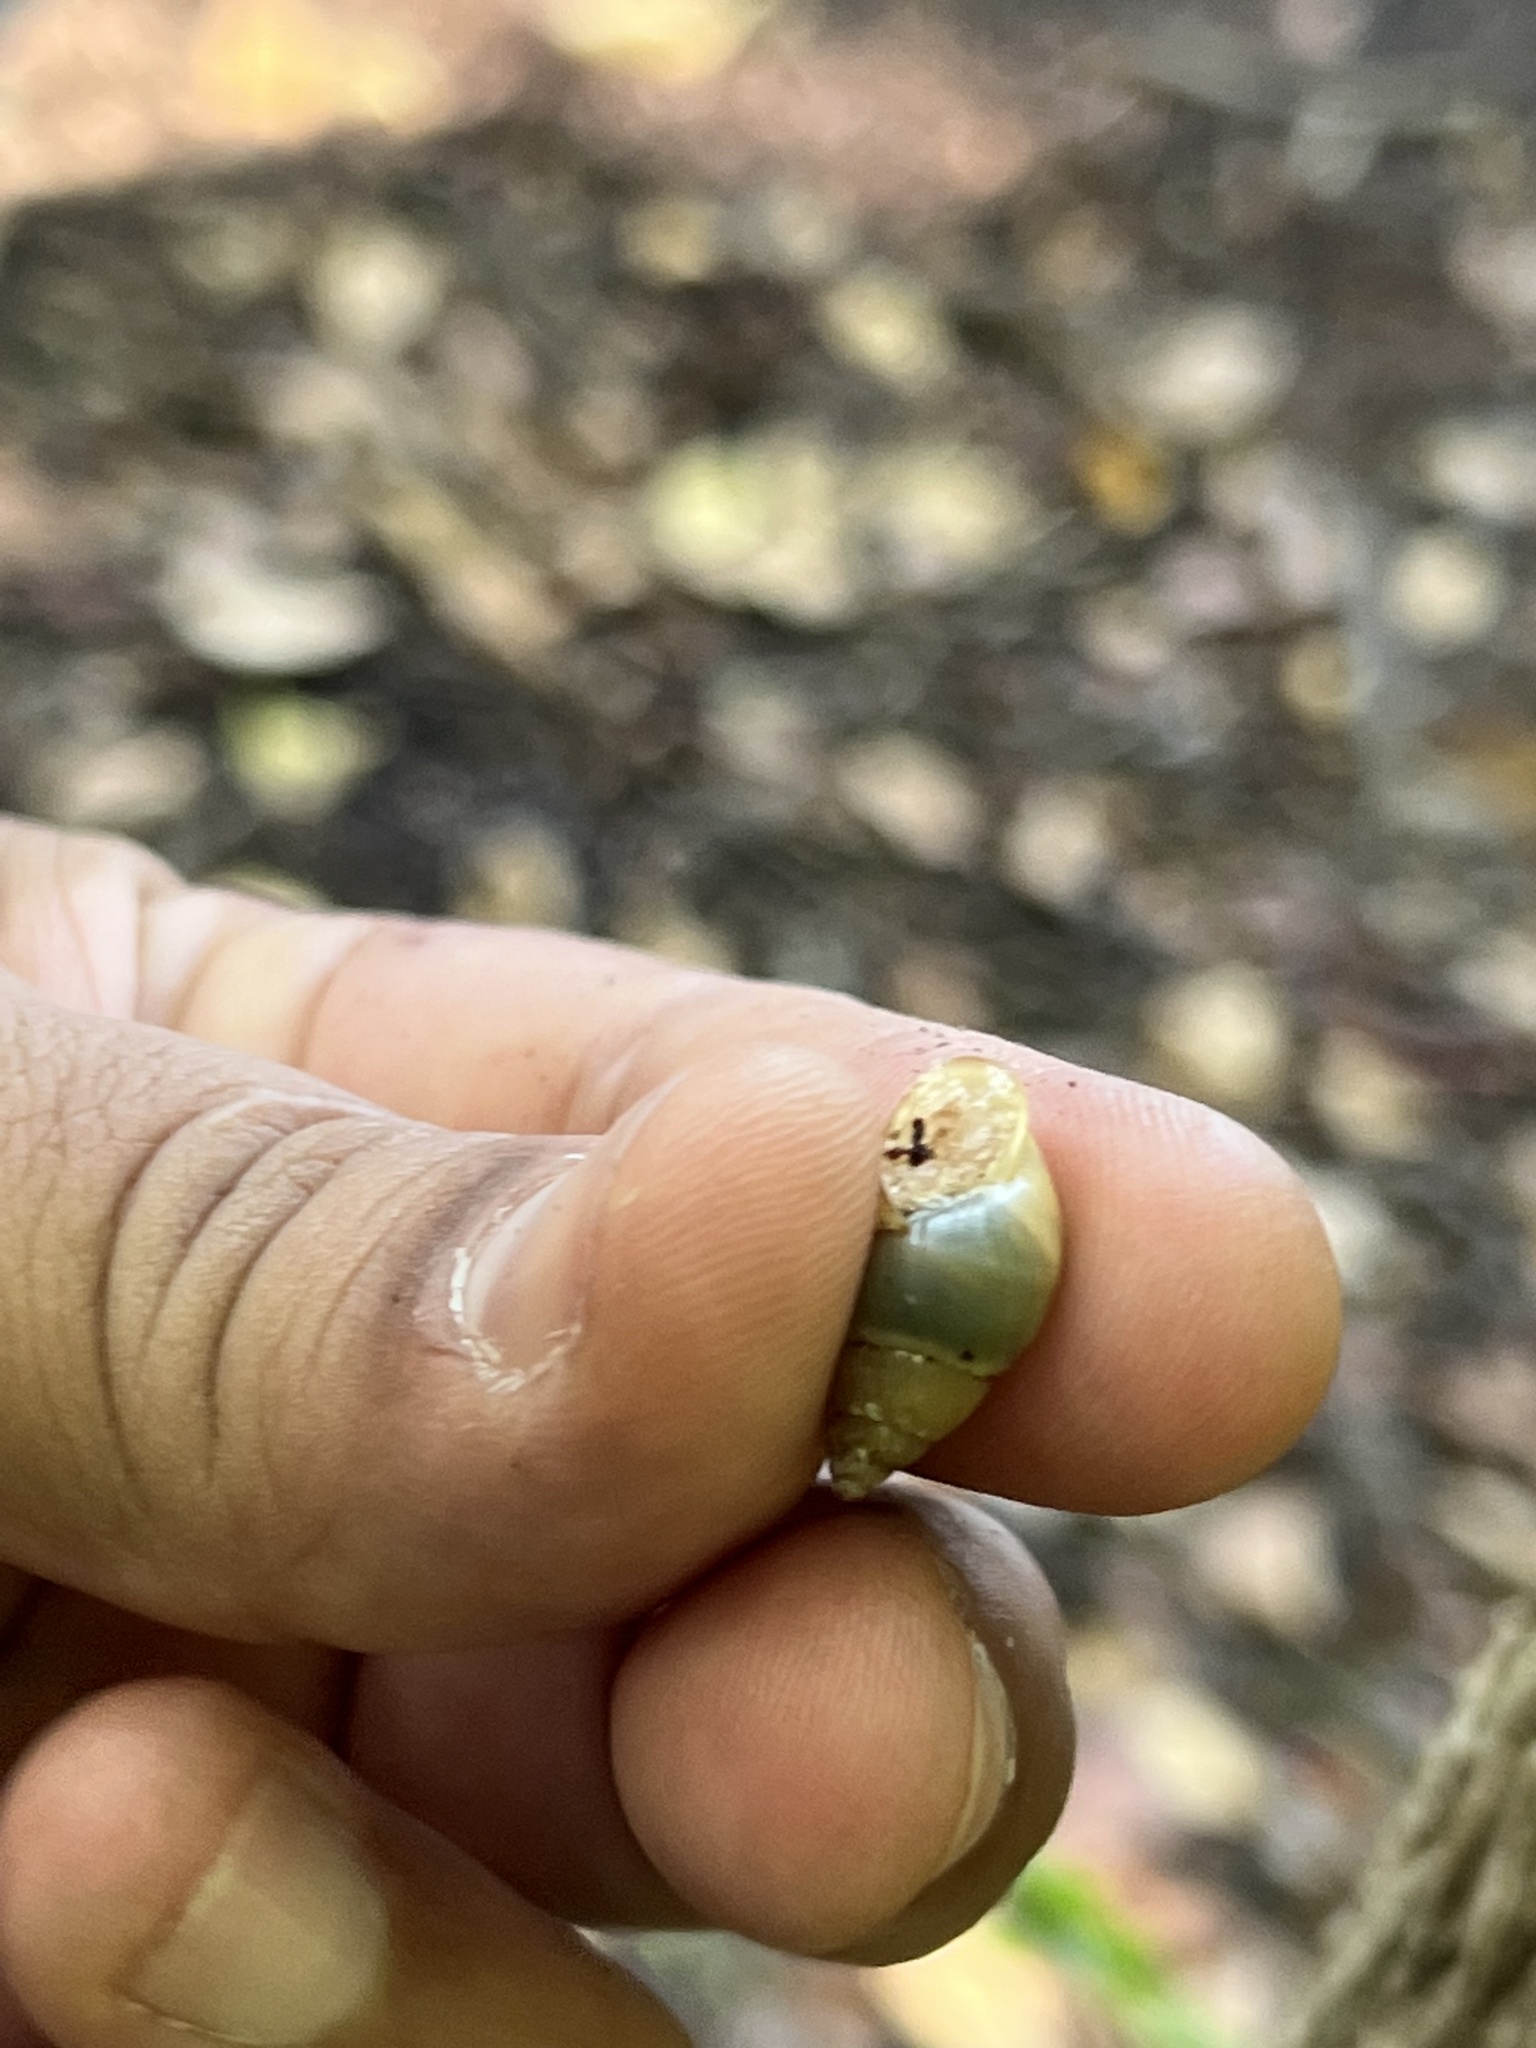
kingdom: Animalia
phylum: Mollusca
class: Gastropoda
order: Stylommatophora
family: Bulimulidae
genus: Bulimulus
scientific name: Bulimulus guadalupensis
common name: West indian bulimulus
